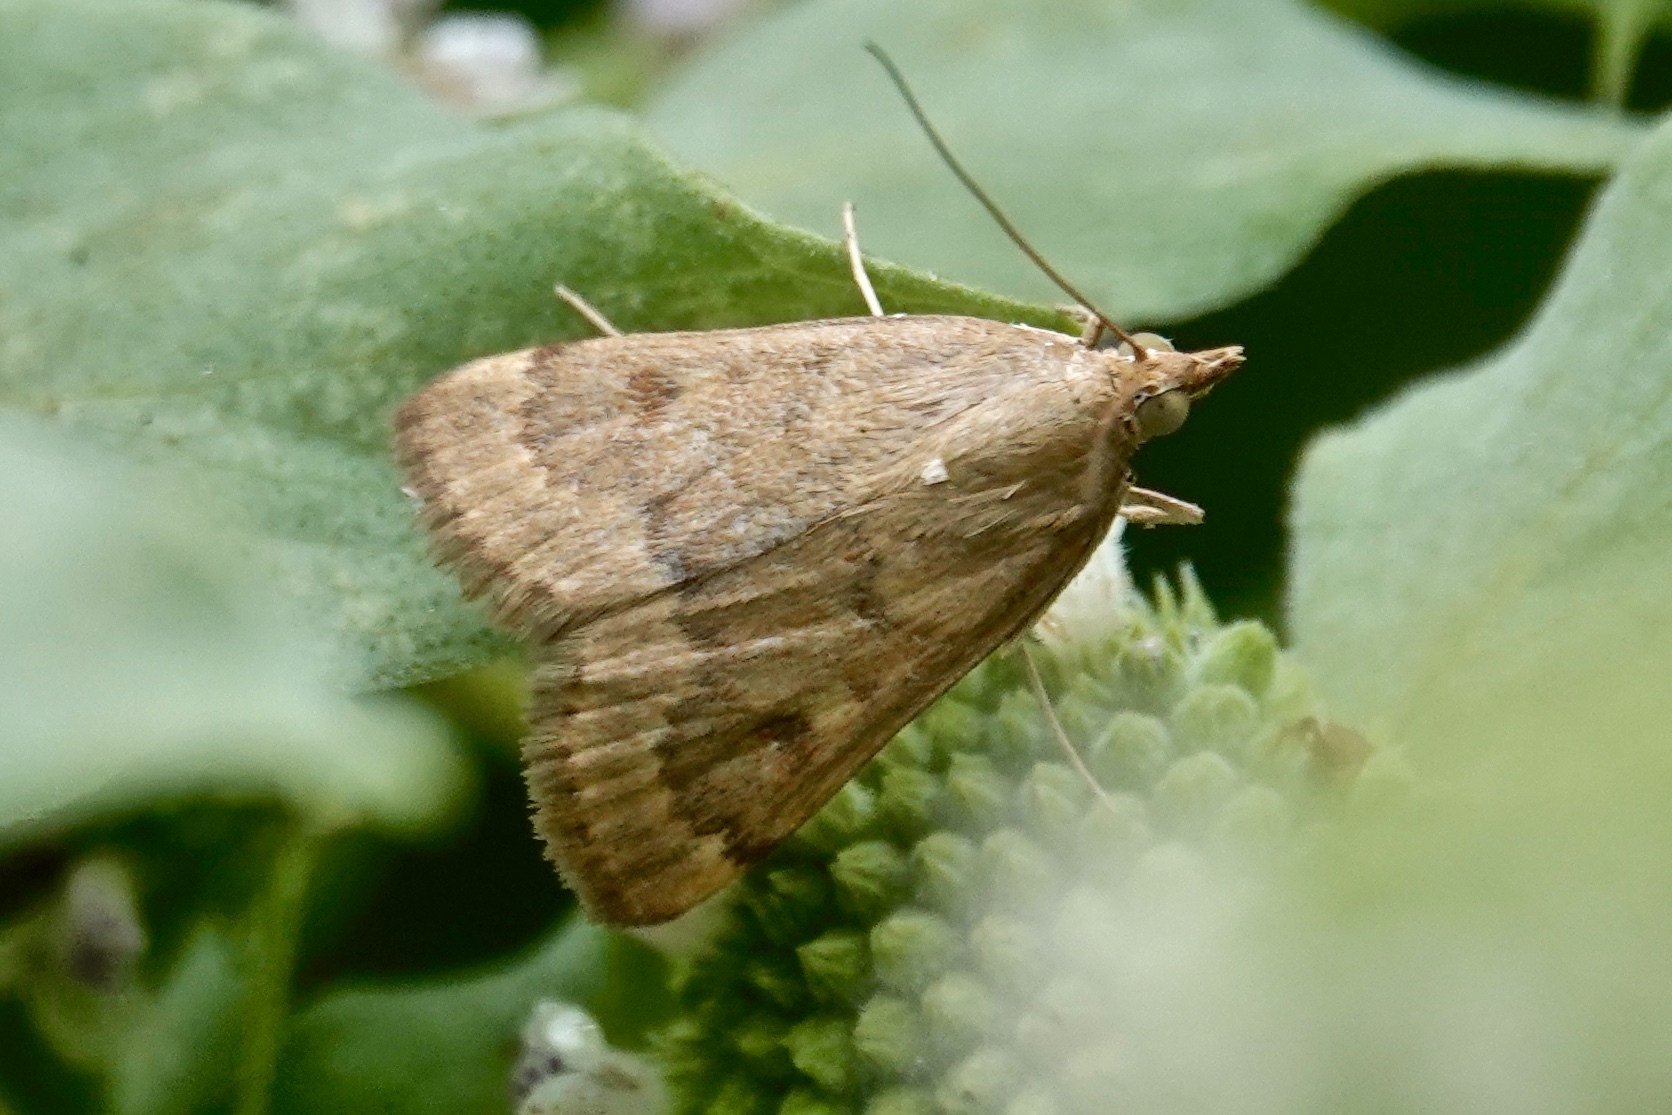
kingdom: Animalia
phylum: Arthropoda
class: Insecta
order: Lepidoptera
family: Crambidae
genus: Achyra
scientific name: Achyra rantalis
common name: Garden webworm
